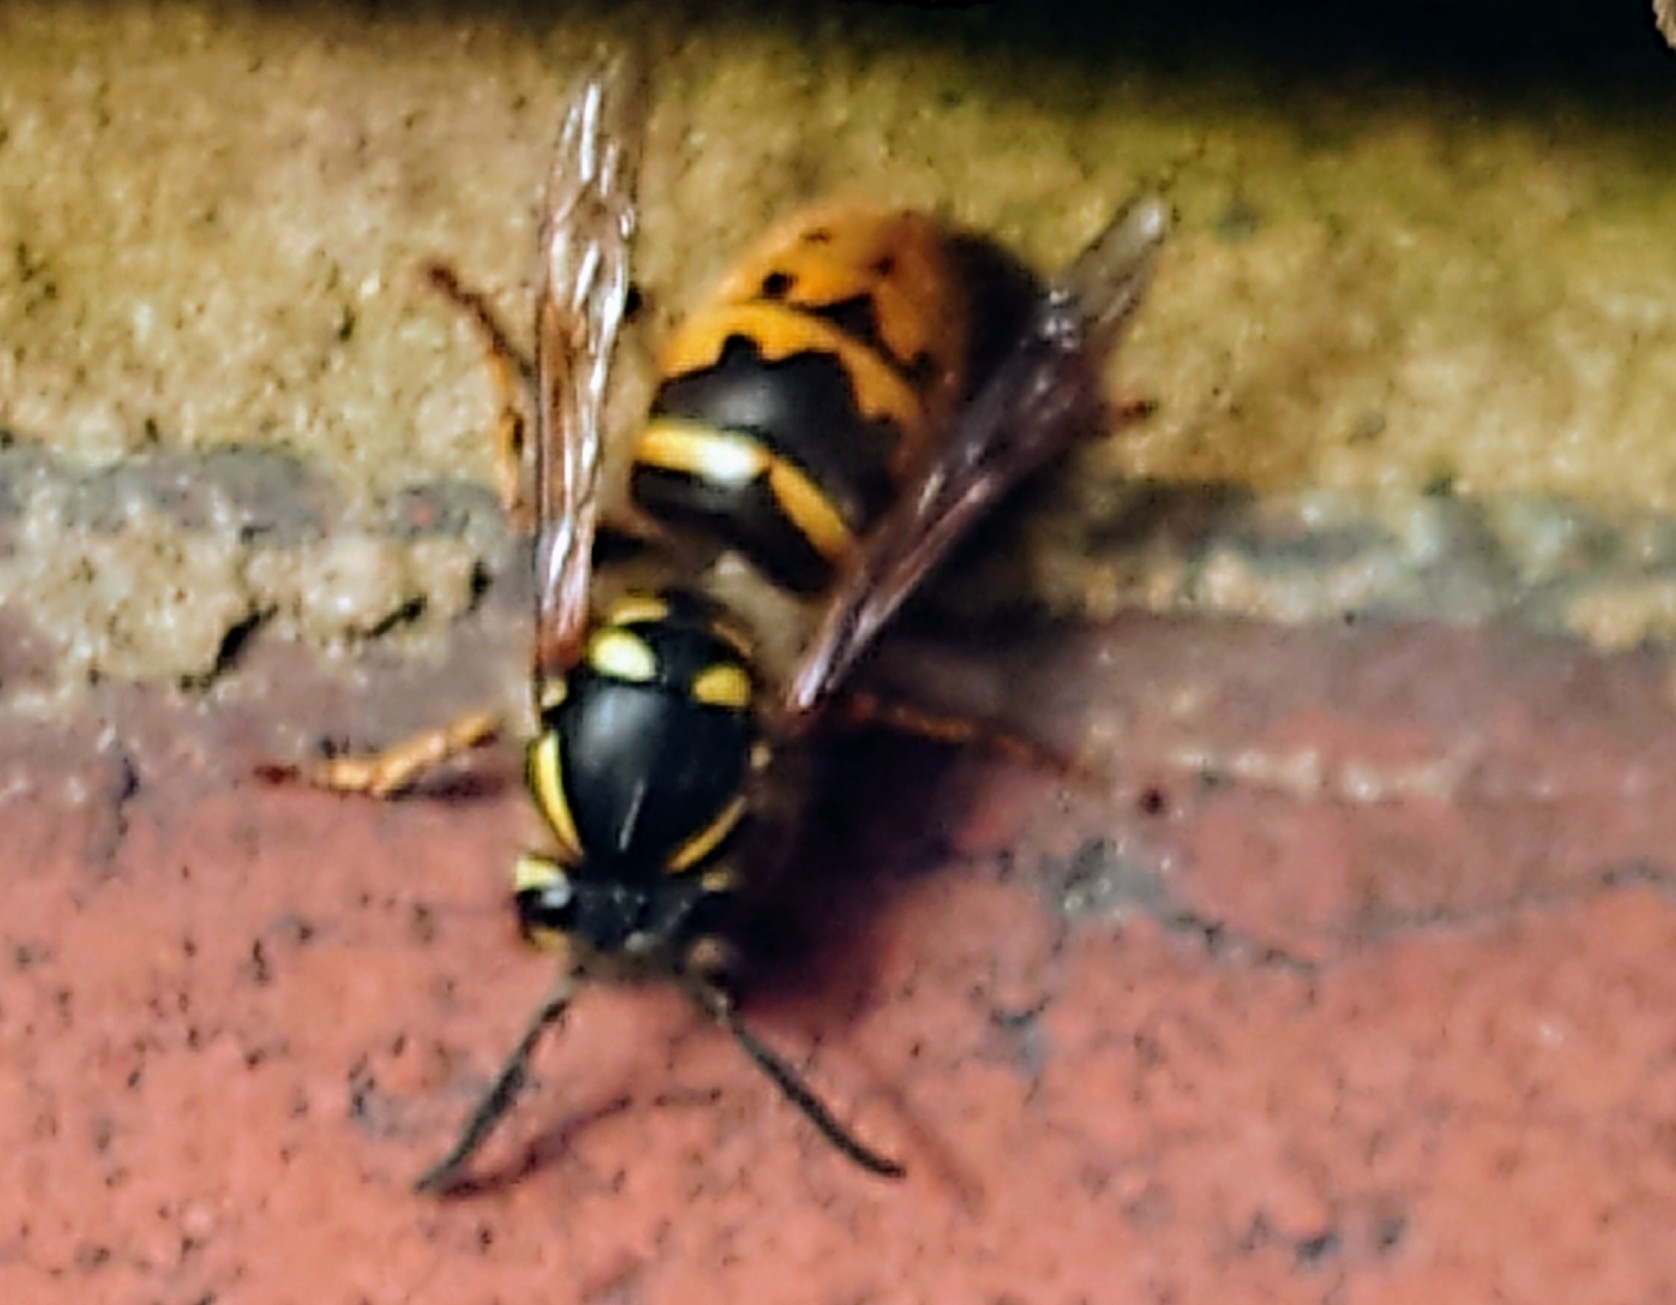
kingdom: Animalia
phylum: Arthropoda
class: Insecta
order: Hymenoptera
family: Vespidae
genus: Vespula
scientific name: Vespula vulgaris
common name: Common wasp
